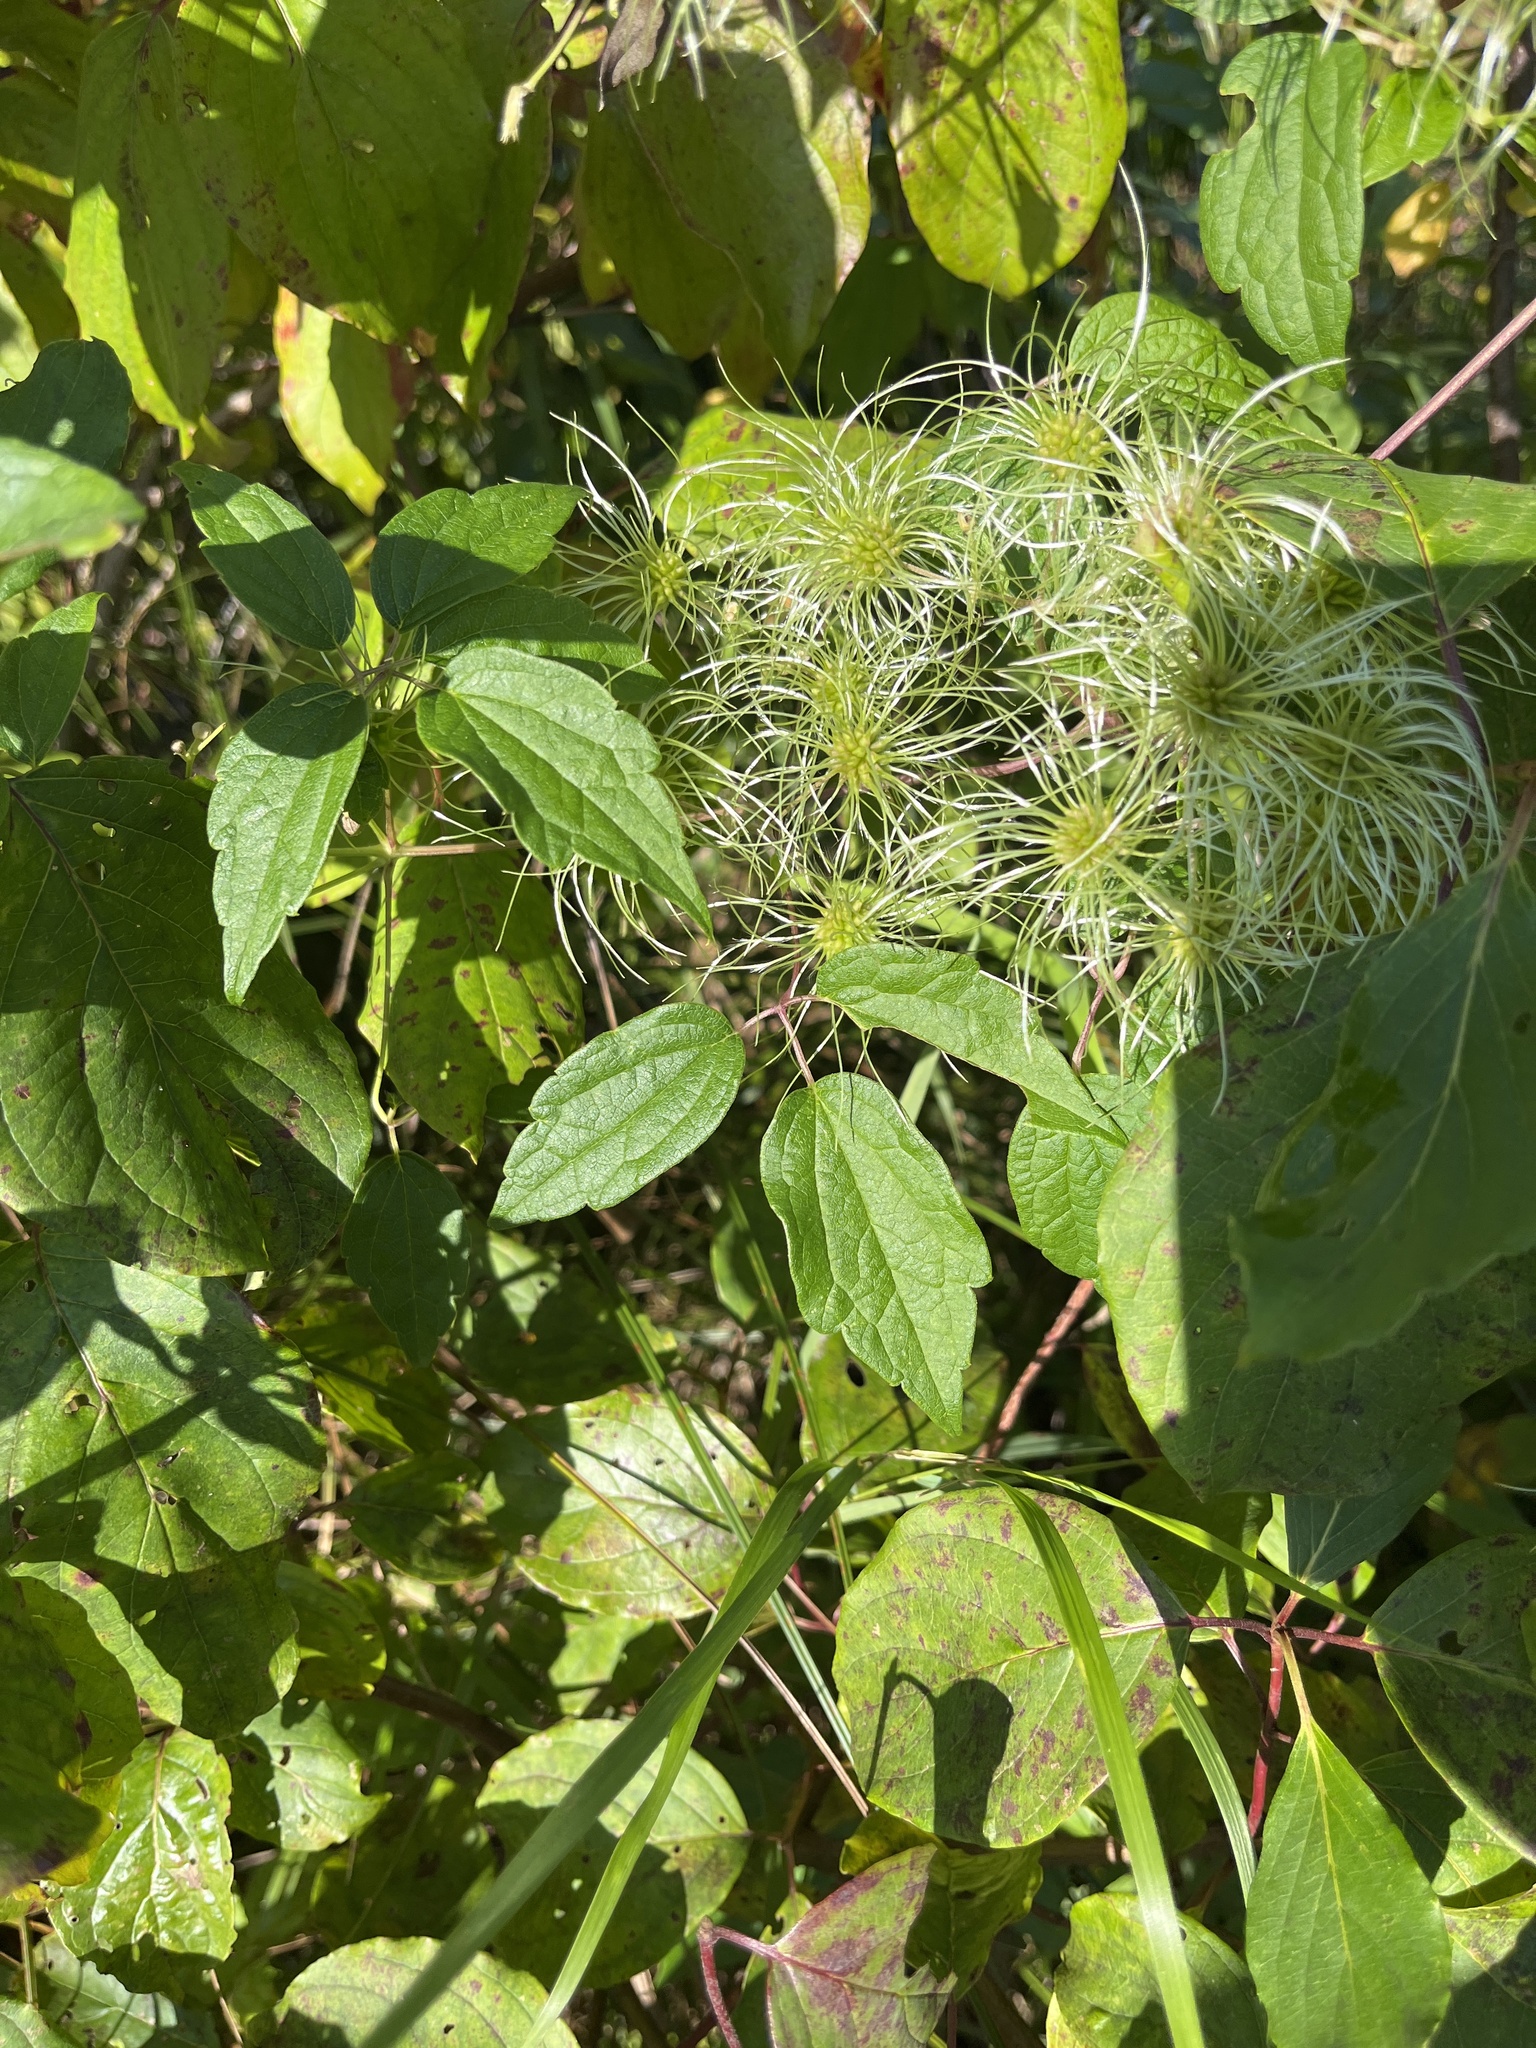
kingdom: Plantae
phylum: Tracheophyta
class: Magnoliopsida
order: Ranunculales
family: Ranunculaceae
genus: Clematis
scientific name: Clematis virginiana
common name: Virgin's-bower
